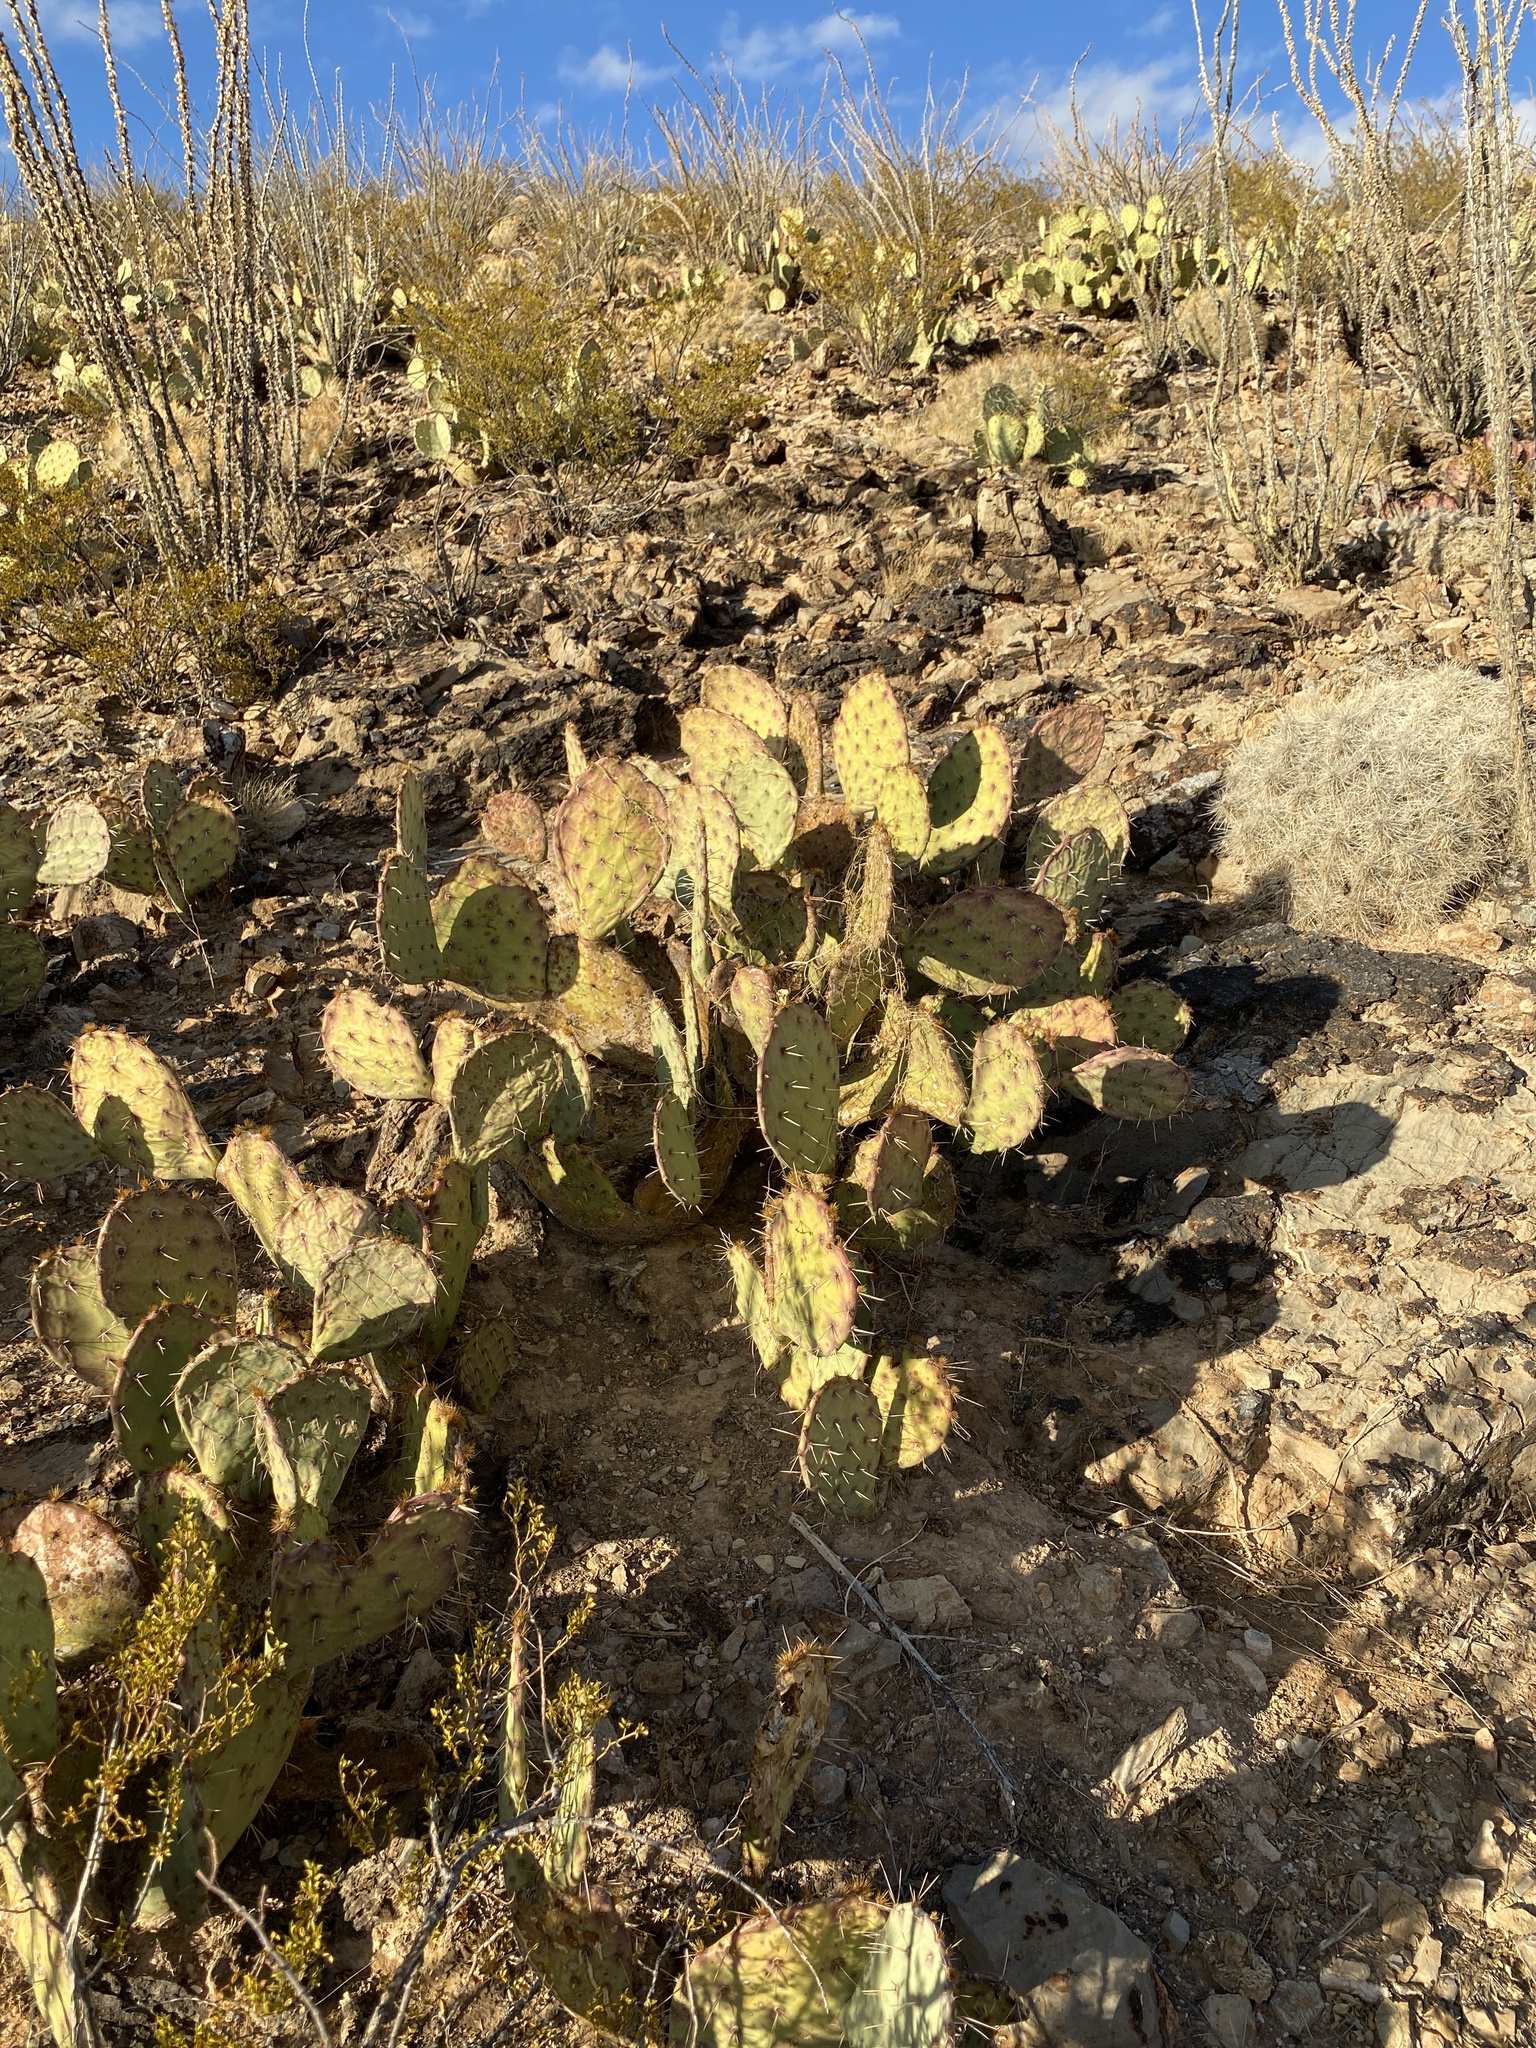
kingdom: Plantae
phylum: Tracheophyta
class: Magnoliopsida
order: Caryophyllales
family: Cactaceae
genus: Opuntia
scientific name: Opuntia engelmannii
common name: Cactus-apple
